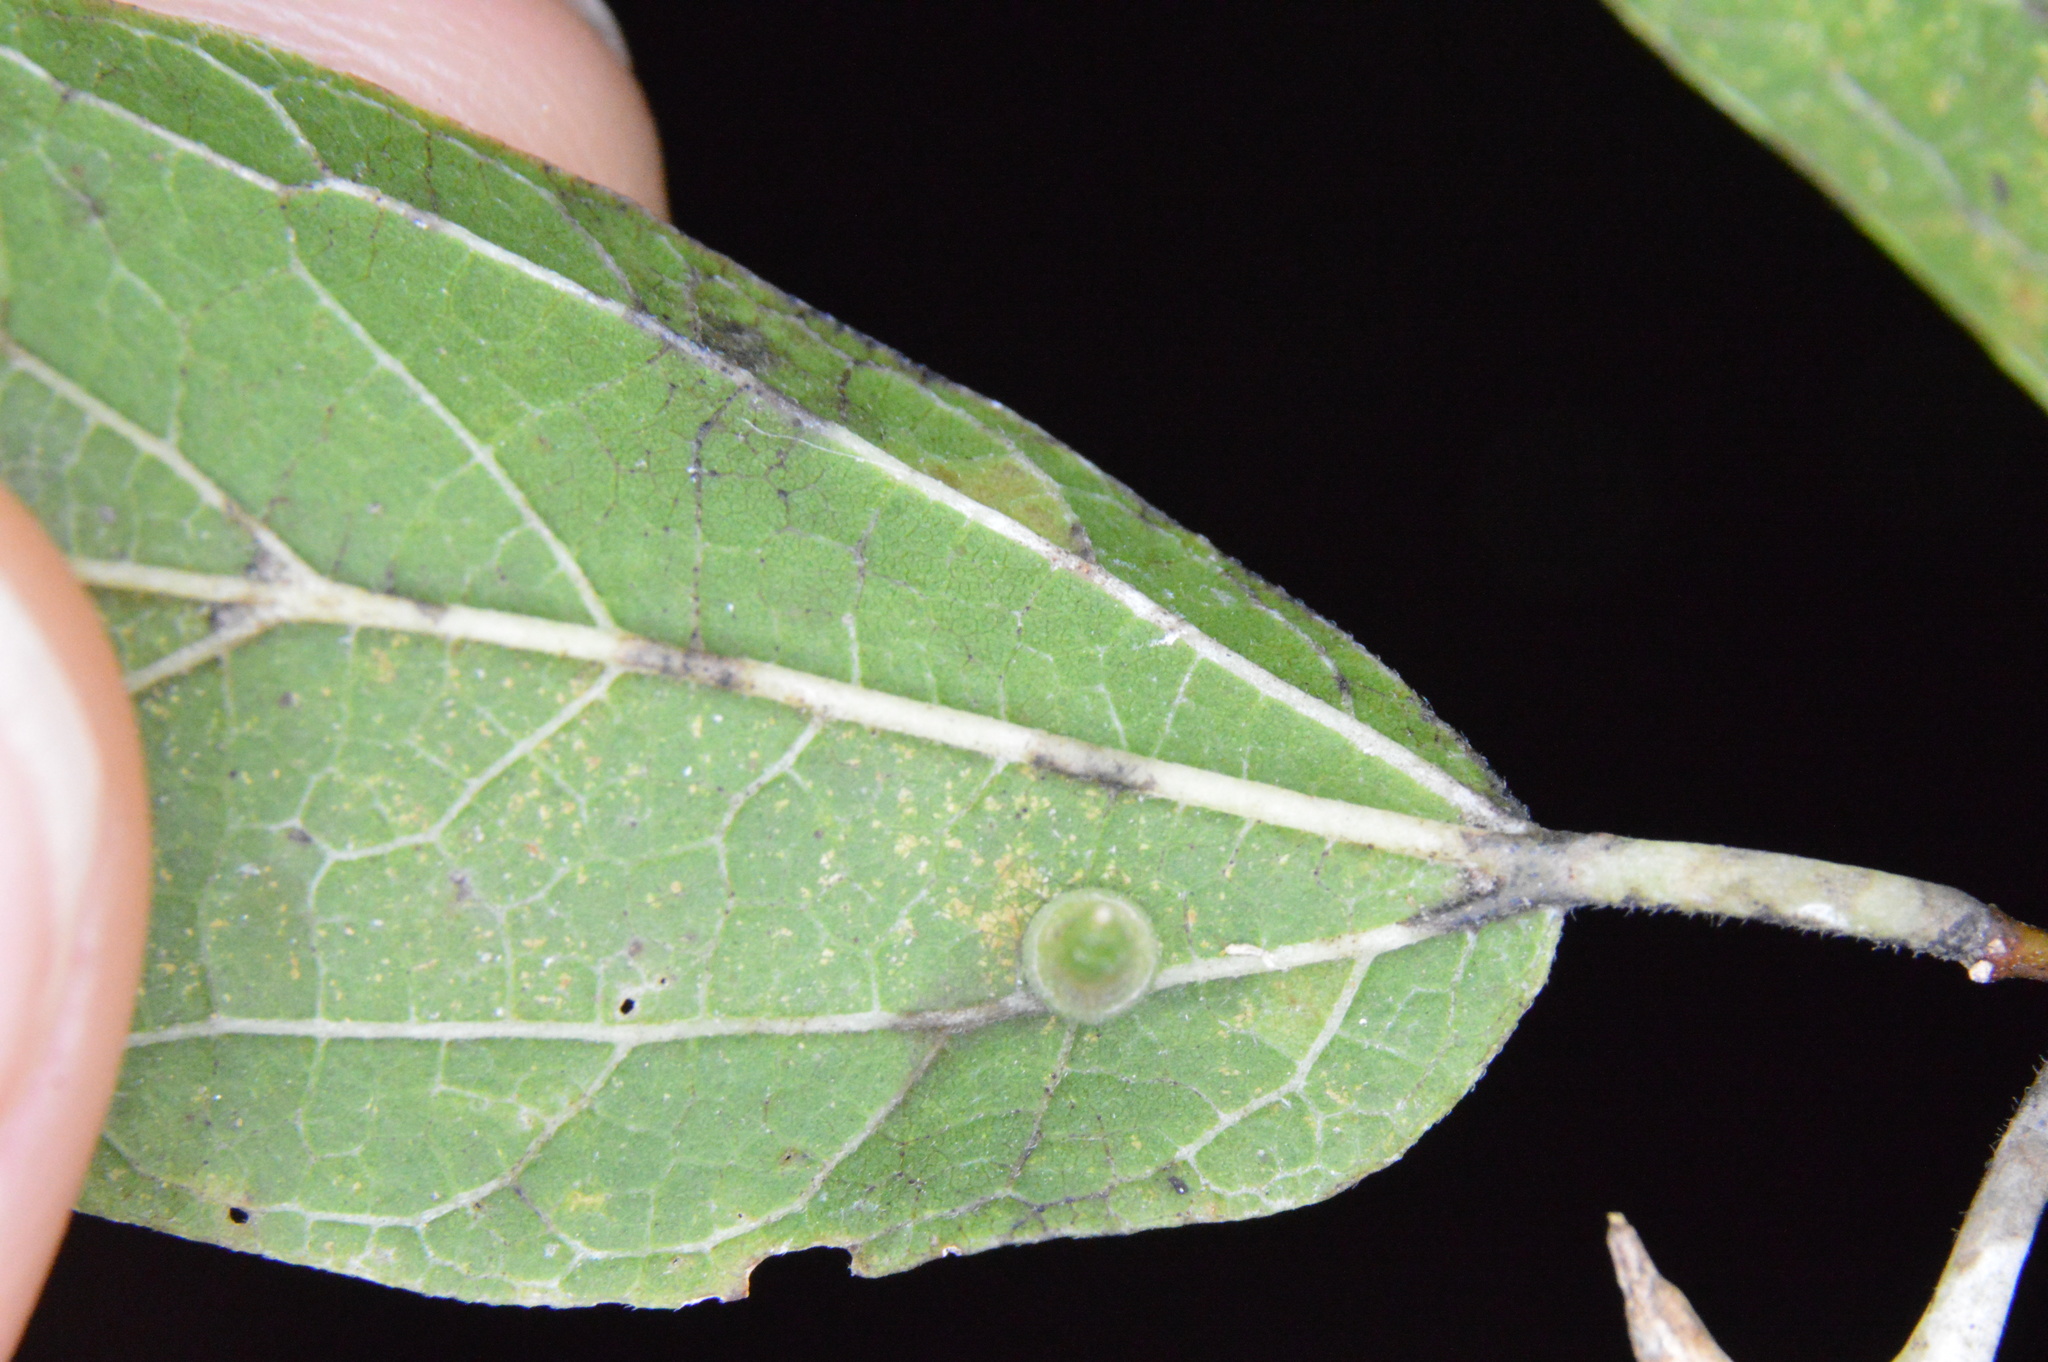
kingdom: Animalia
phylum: Arthropoda
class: Insecta
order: Diptera
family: Cecidomyiidae
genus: Celticecis
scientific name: Celticecis subulata
